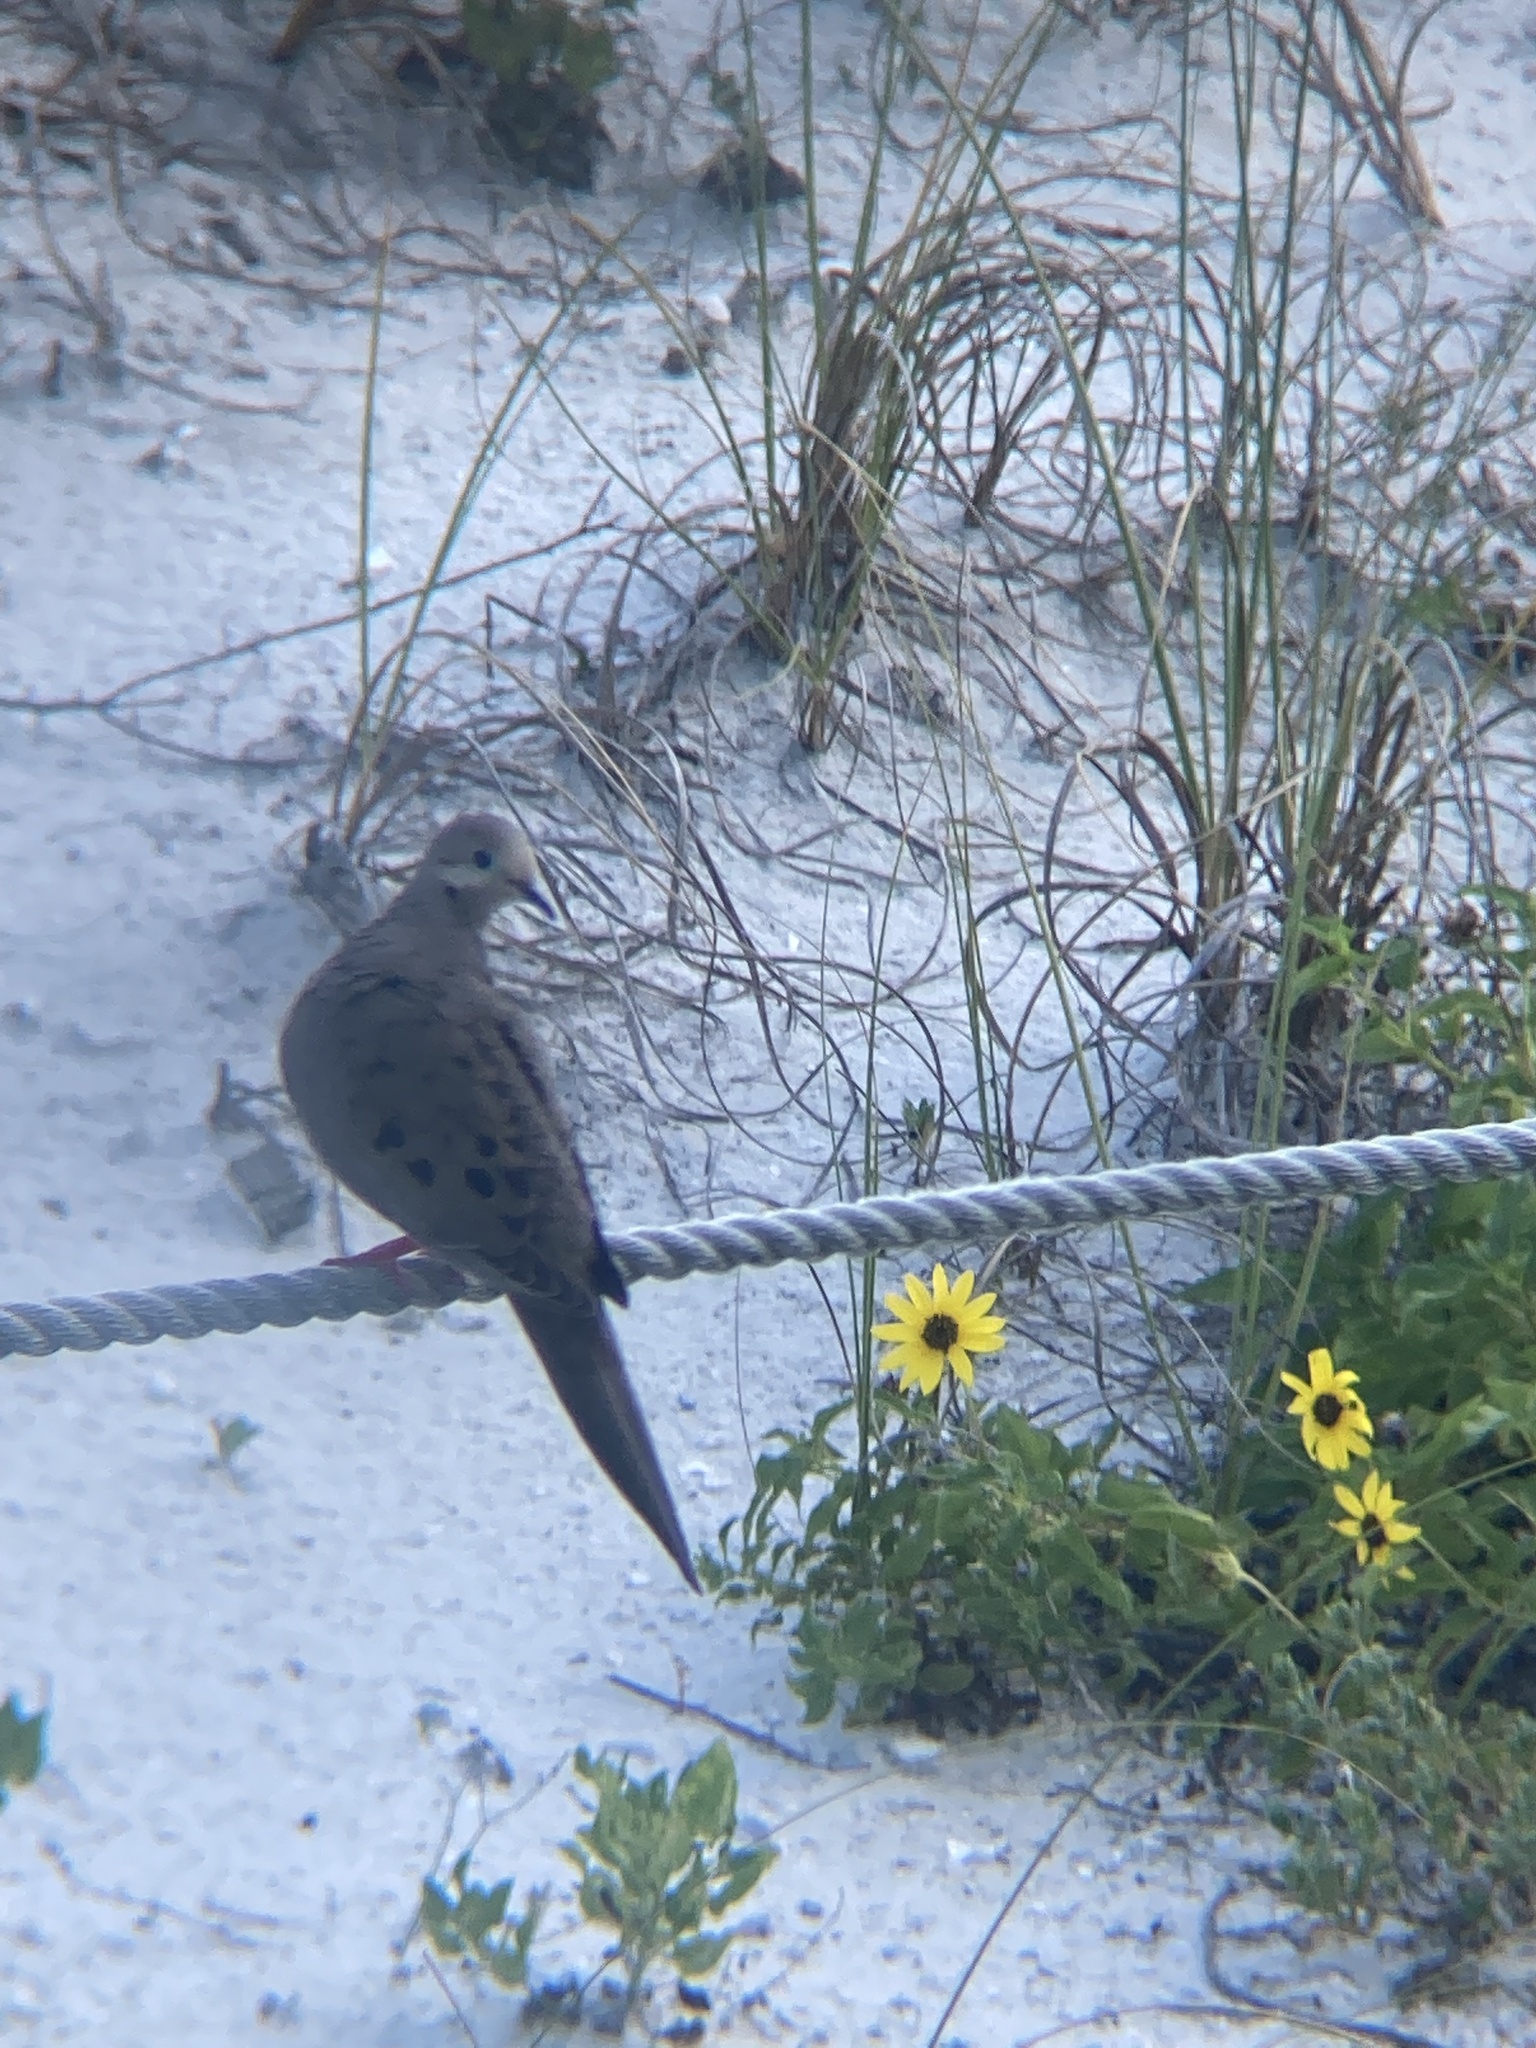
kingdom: Animalia
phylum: Chordata
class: Aves
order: Columbiformes
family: Columbidae
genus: Zenaida
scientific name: Zenaida macroura
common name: Mourning dove
